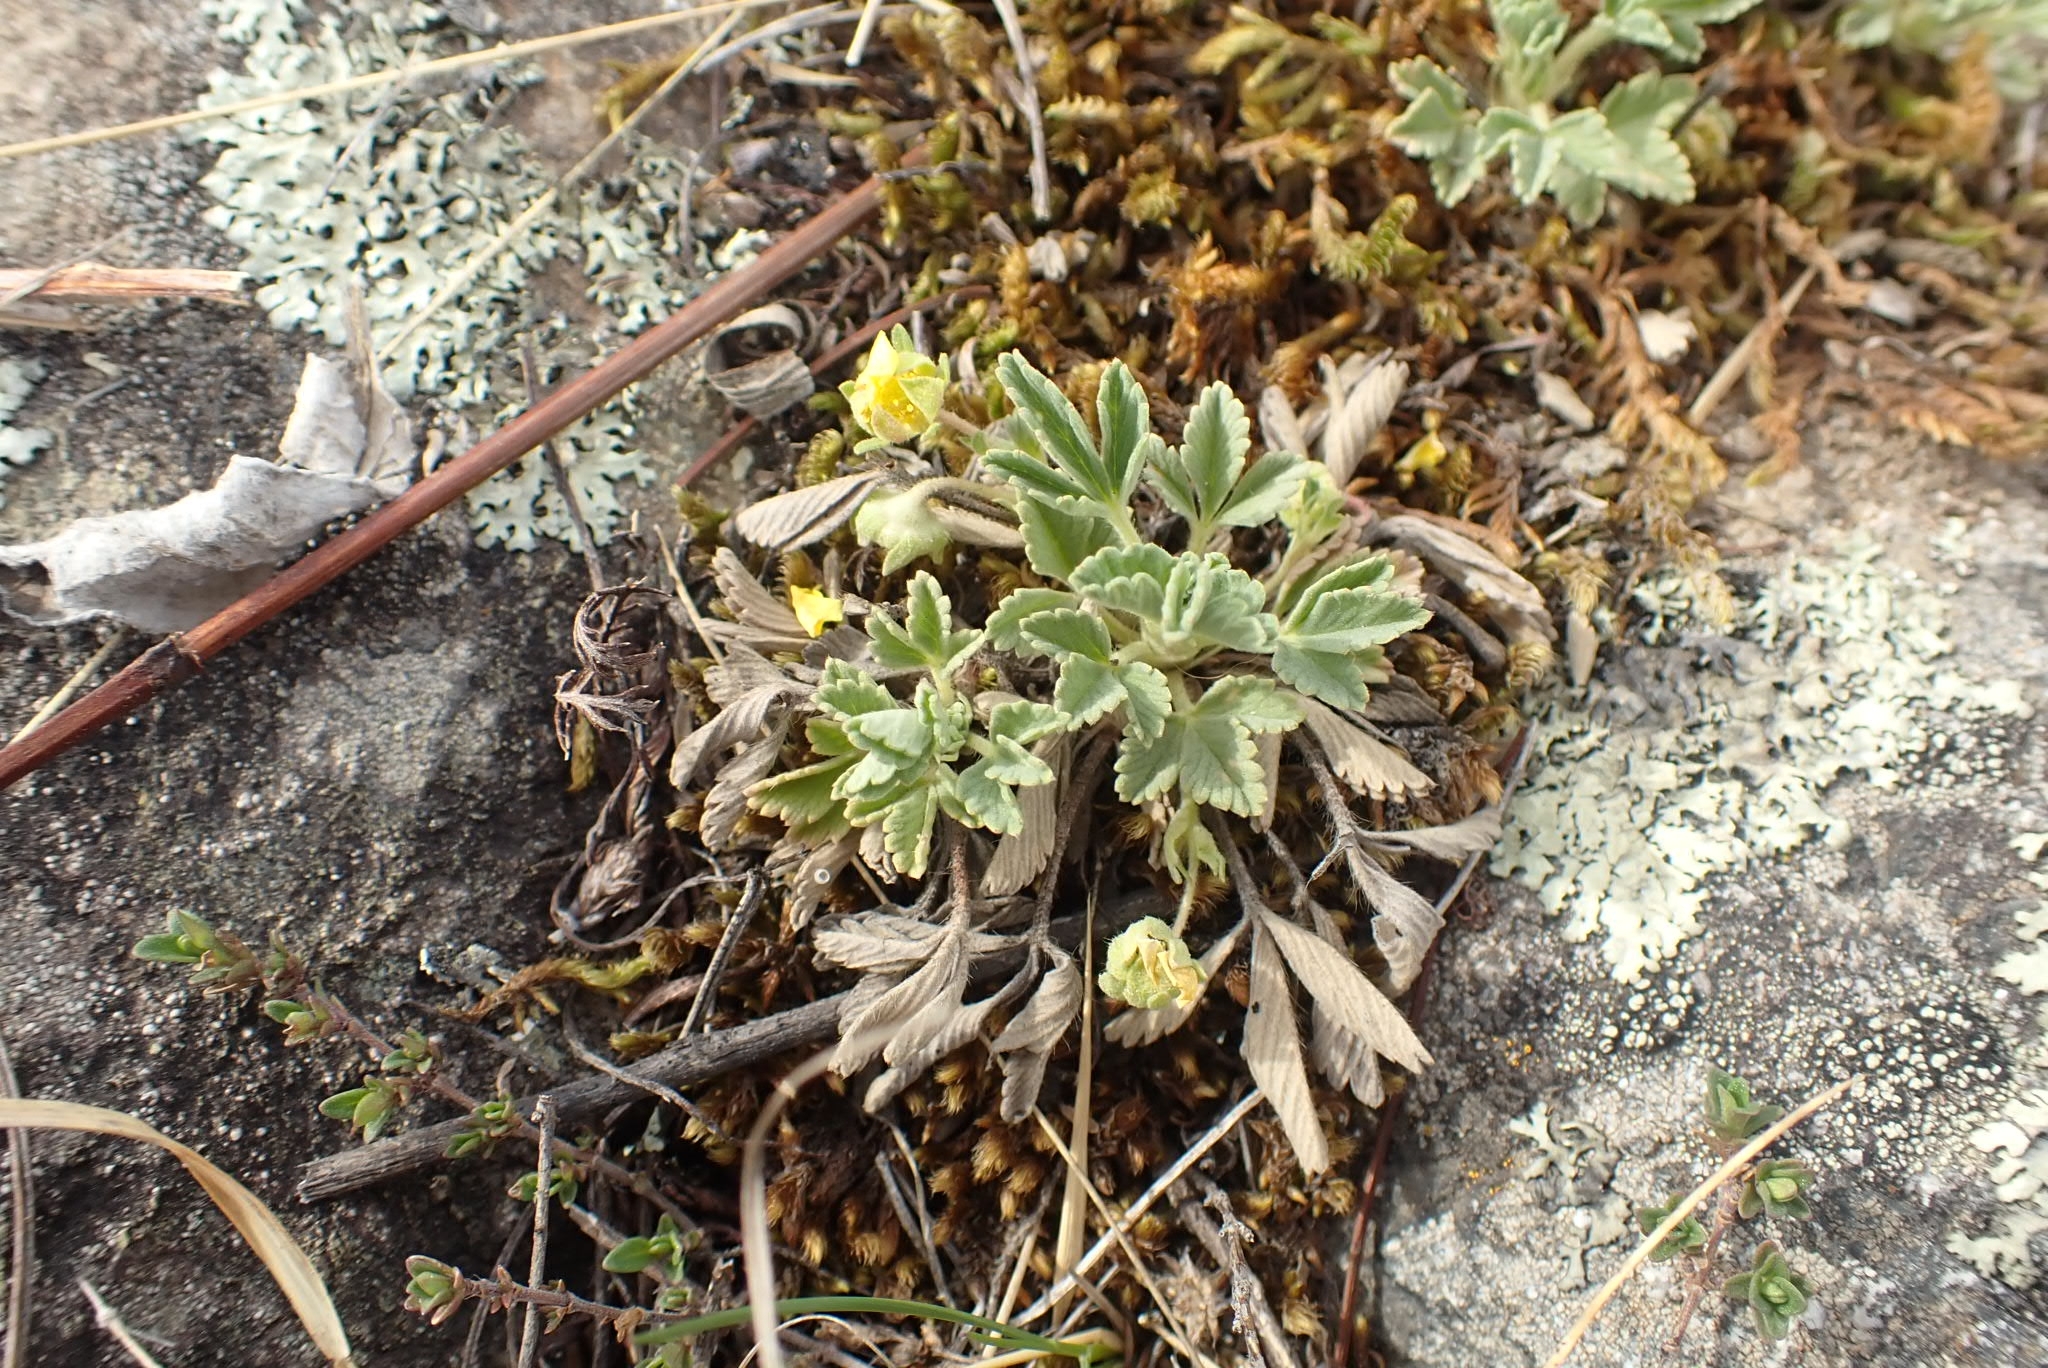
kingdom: Plantae
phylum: Tracheophyta
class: Magnoliopsida
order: Rosales
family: Rosaceae
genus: Potentilla
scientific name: Potentilla acaulis
